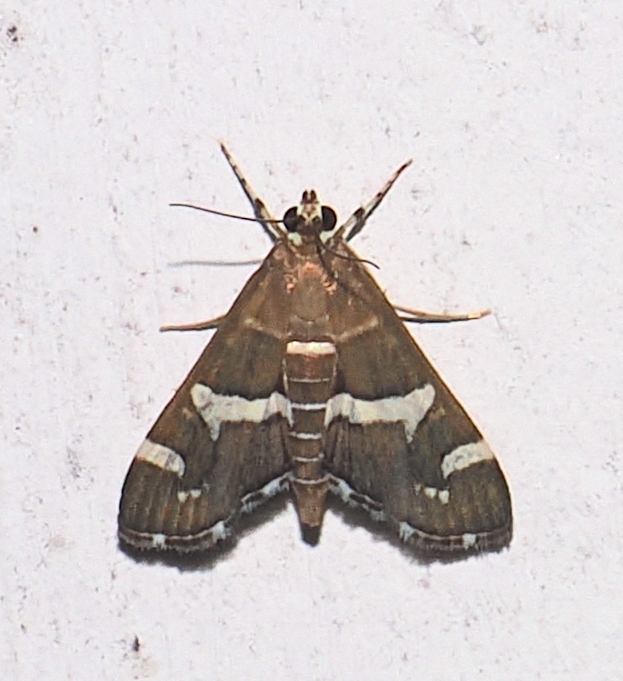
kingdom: Animalia
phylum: Arthropoda
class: Insecta
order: Lepidoptera
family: Crambidae
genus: Spoladea
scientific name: Spoladea recurvalis
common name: Beet webworm moth
